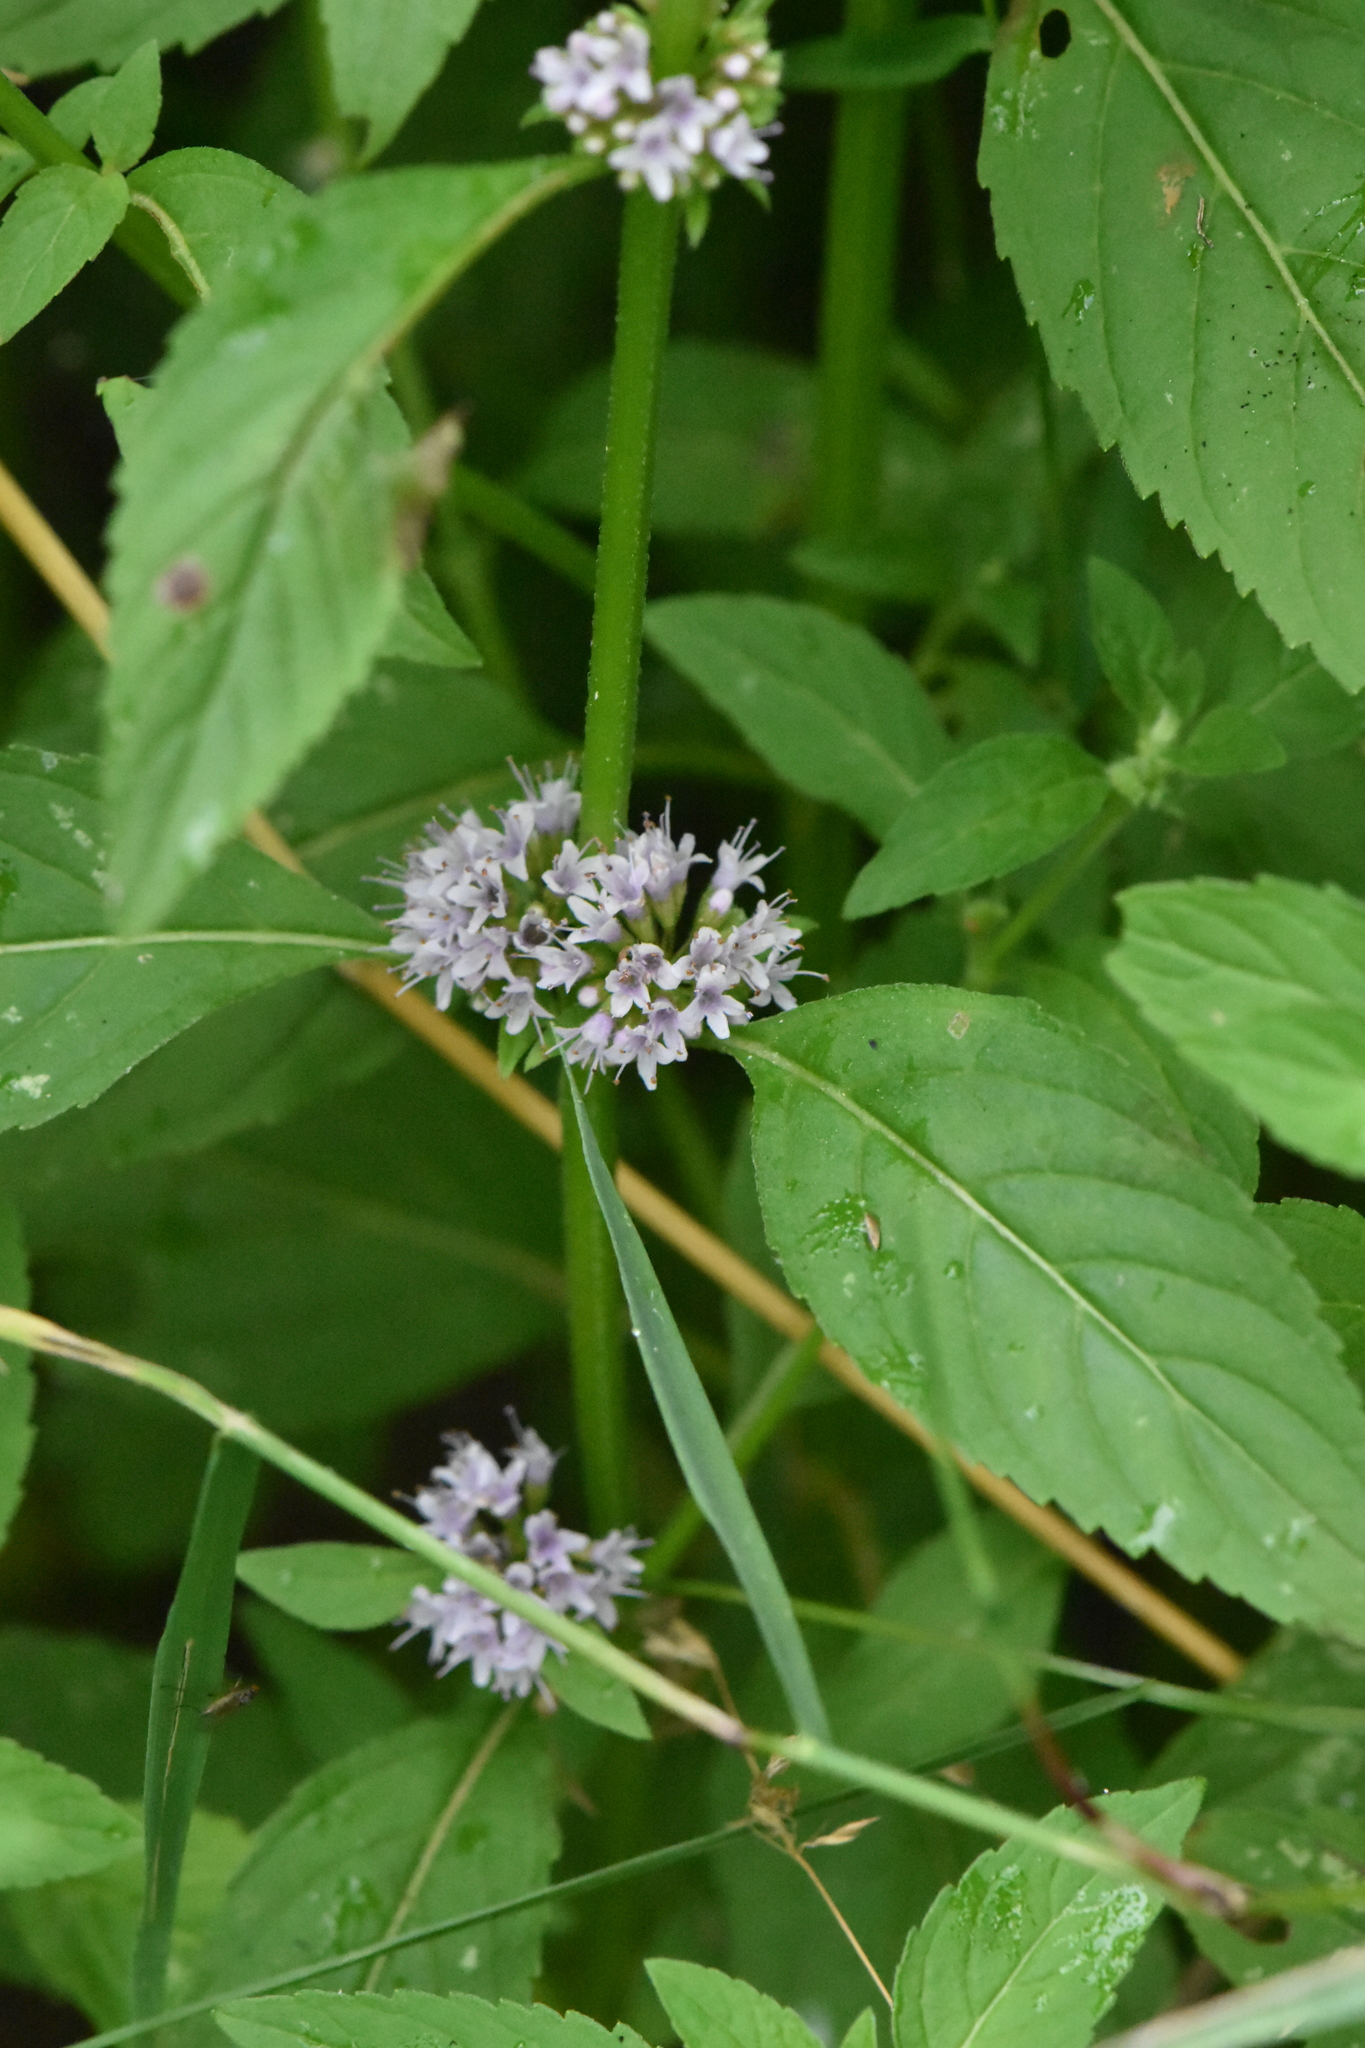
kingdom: Plantae
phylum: Tracheophyta
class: Magnoliopsida
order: Lamiales
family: Lamiaceae
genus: Mentha
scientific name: Mentha arvensis
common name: Corn mint
